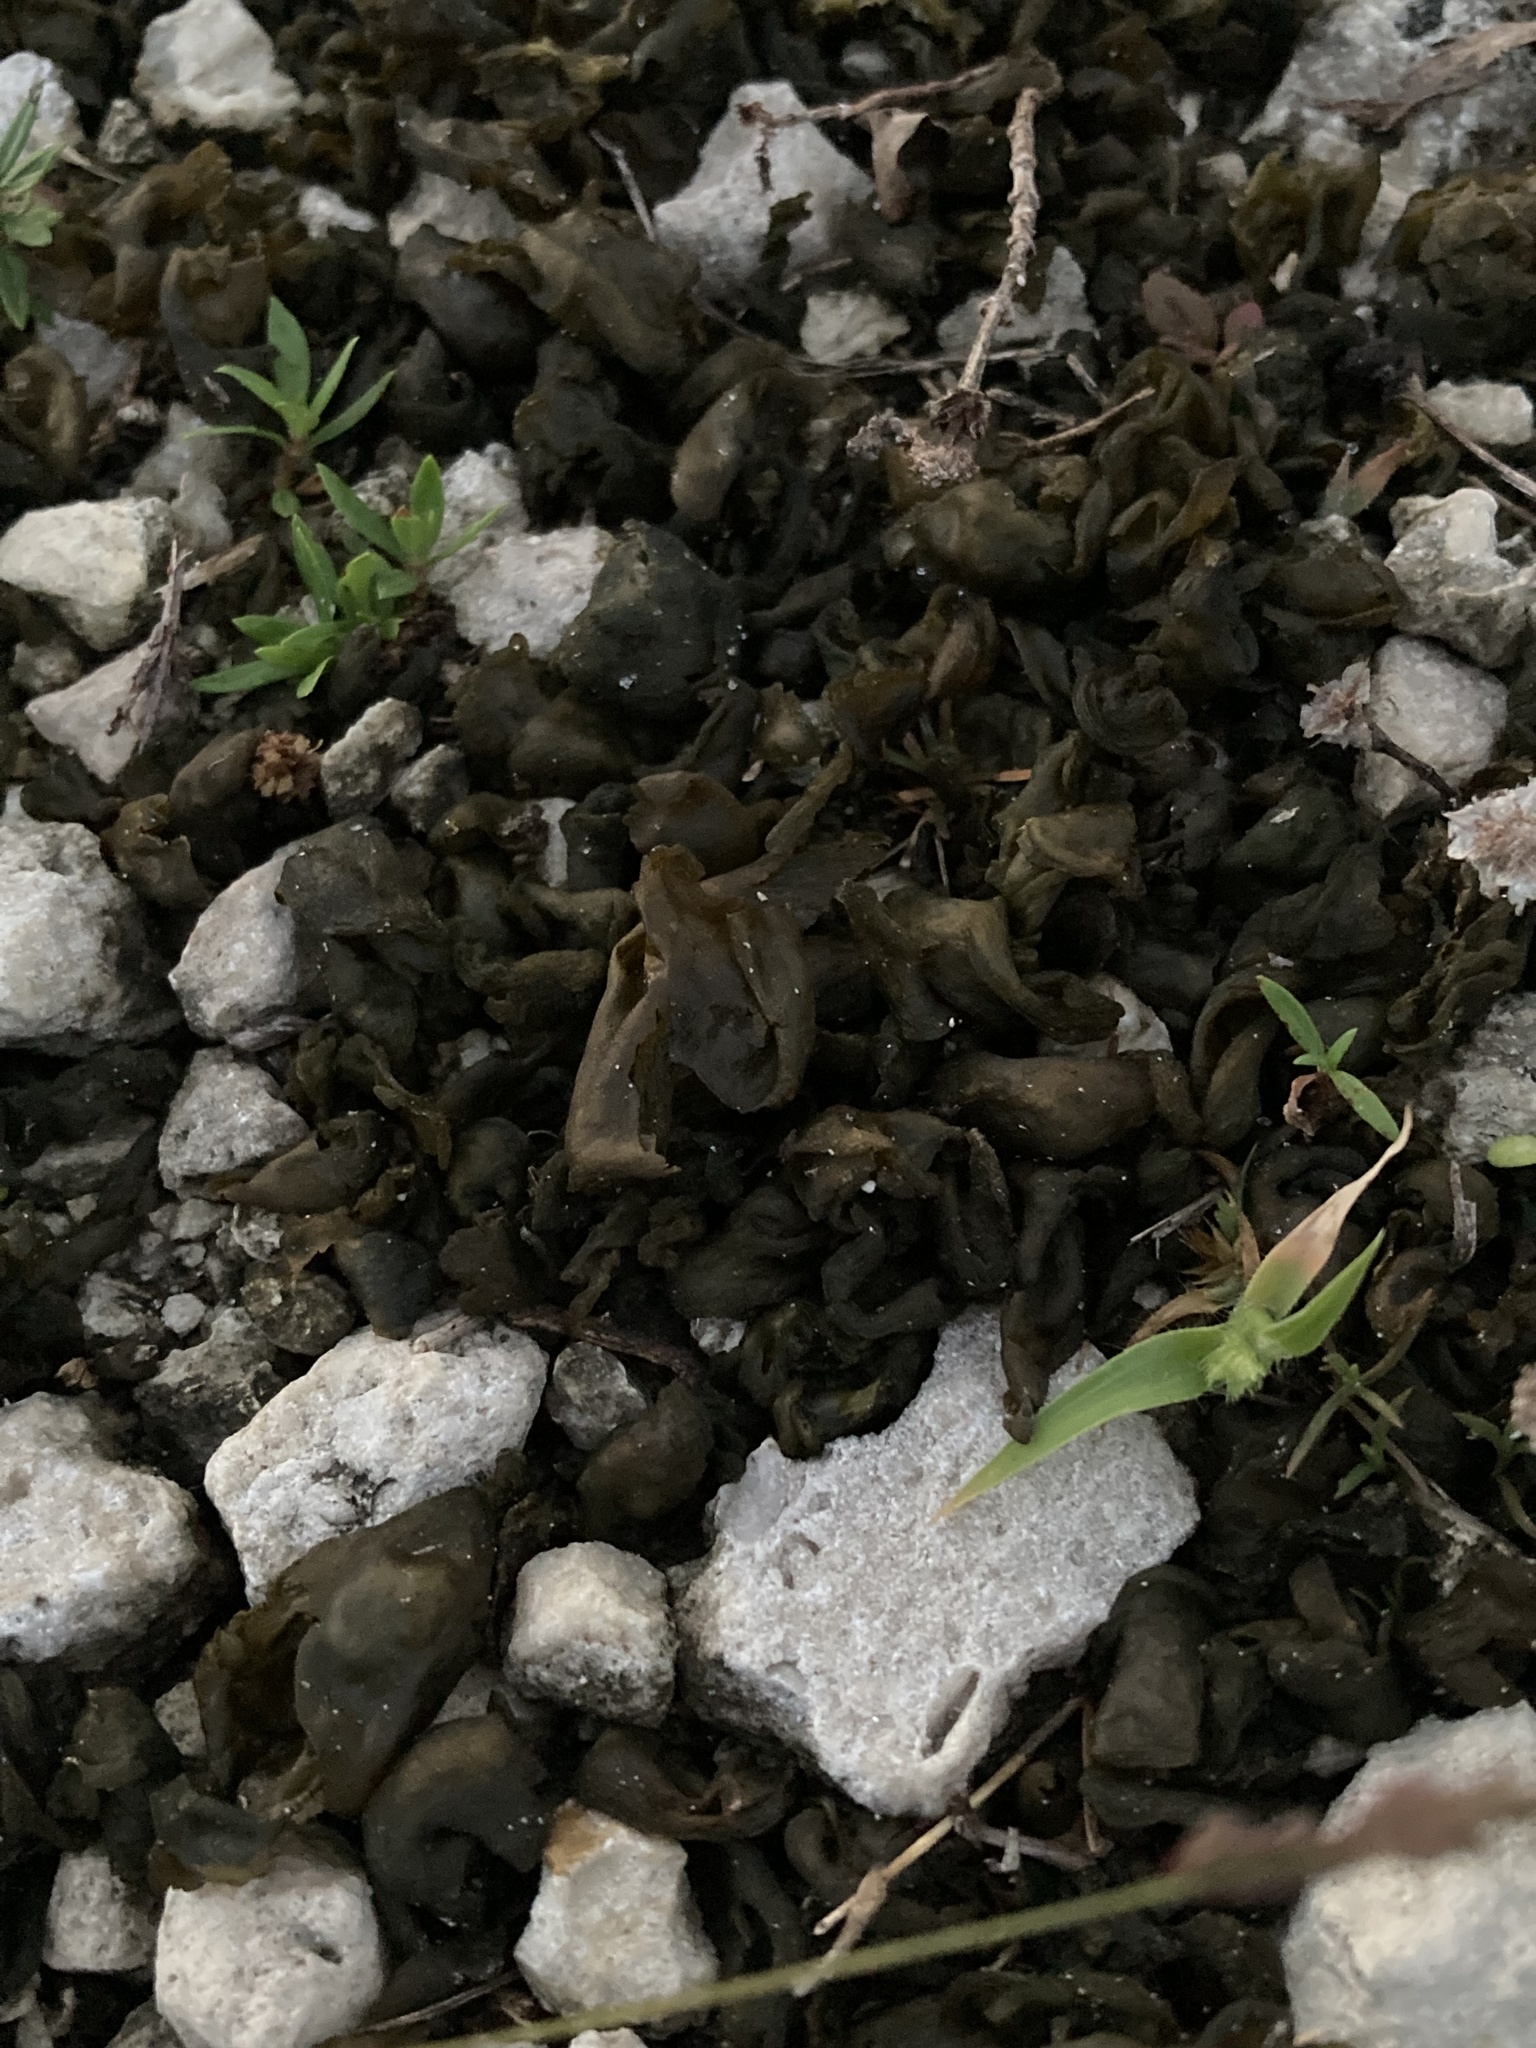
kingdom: Bacteria
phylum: Cyanobacteria
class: Cyanobacteriia
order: Cyanobacteriales
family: Nostocaceae
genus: Nostoc
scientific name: Nostoc commune
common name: Star jelly
